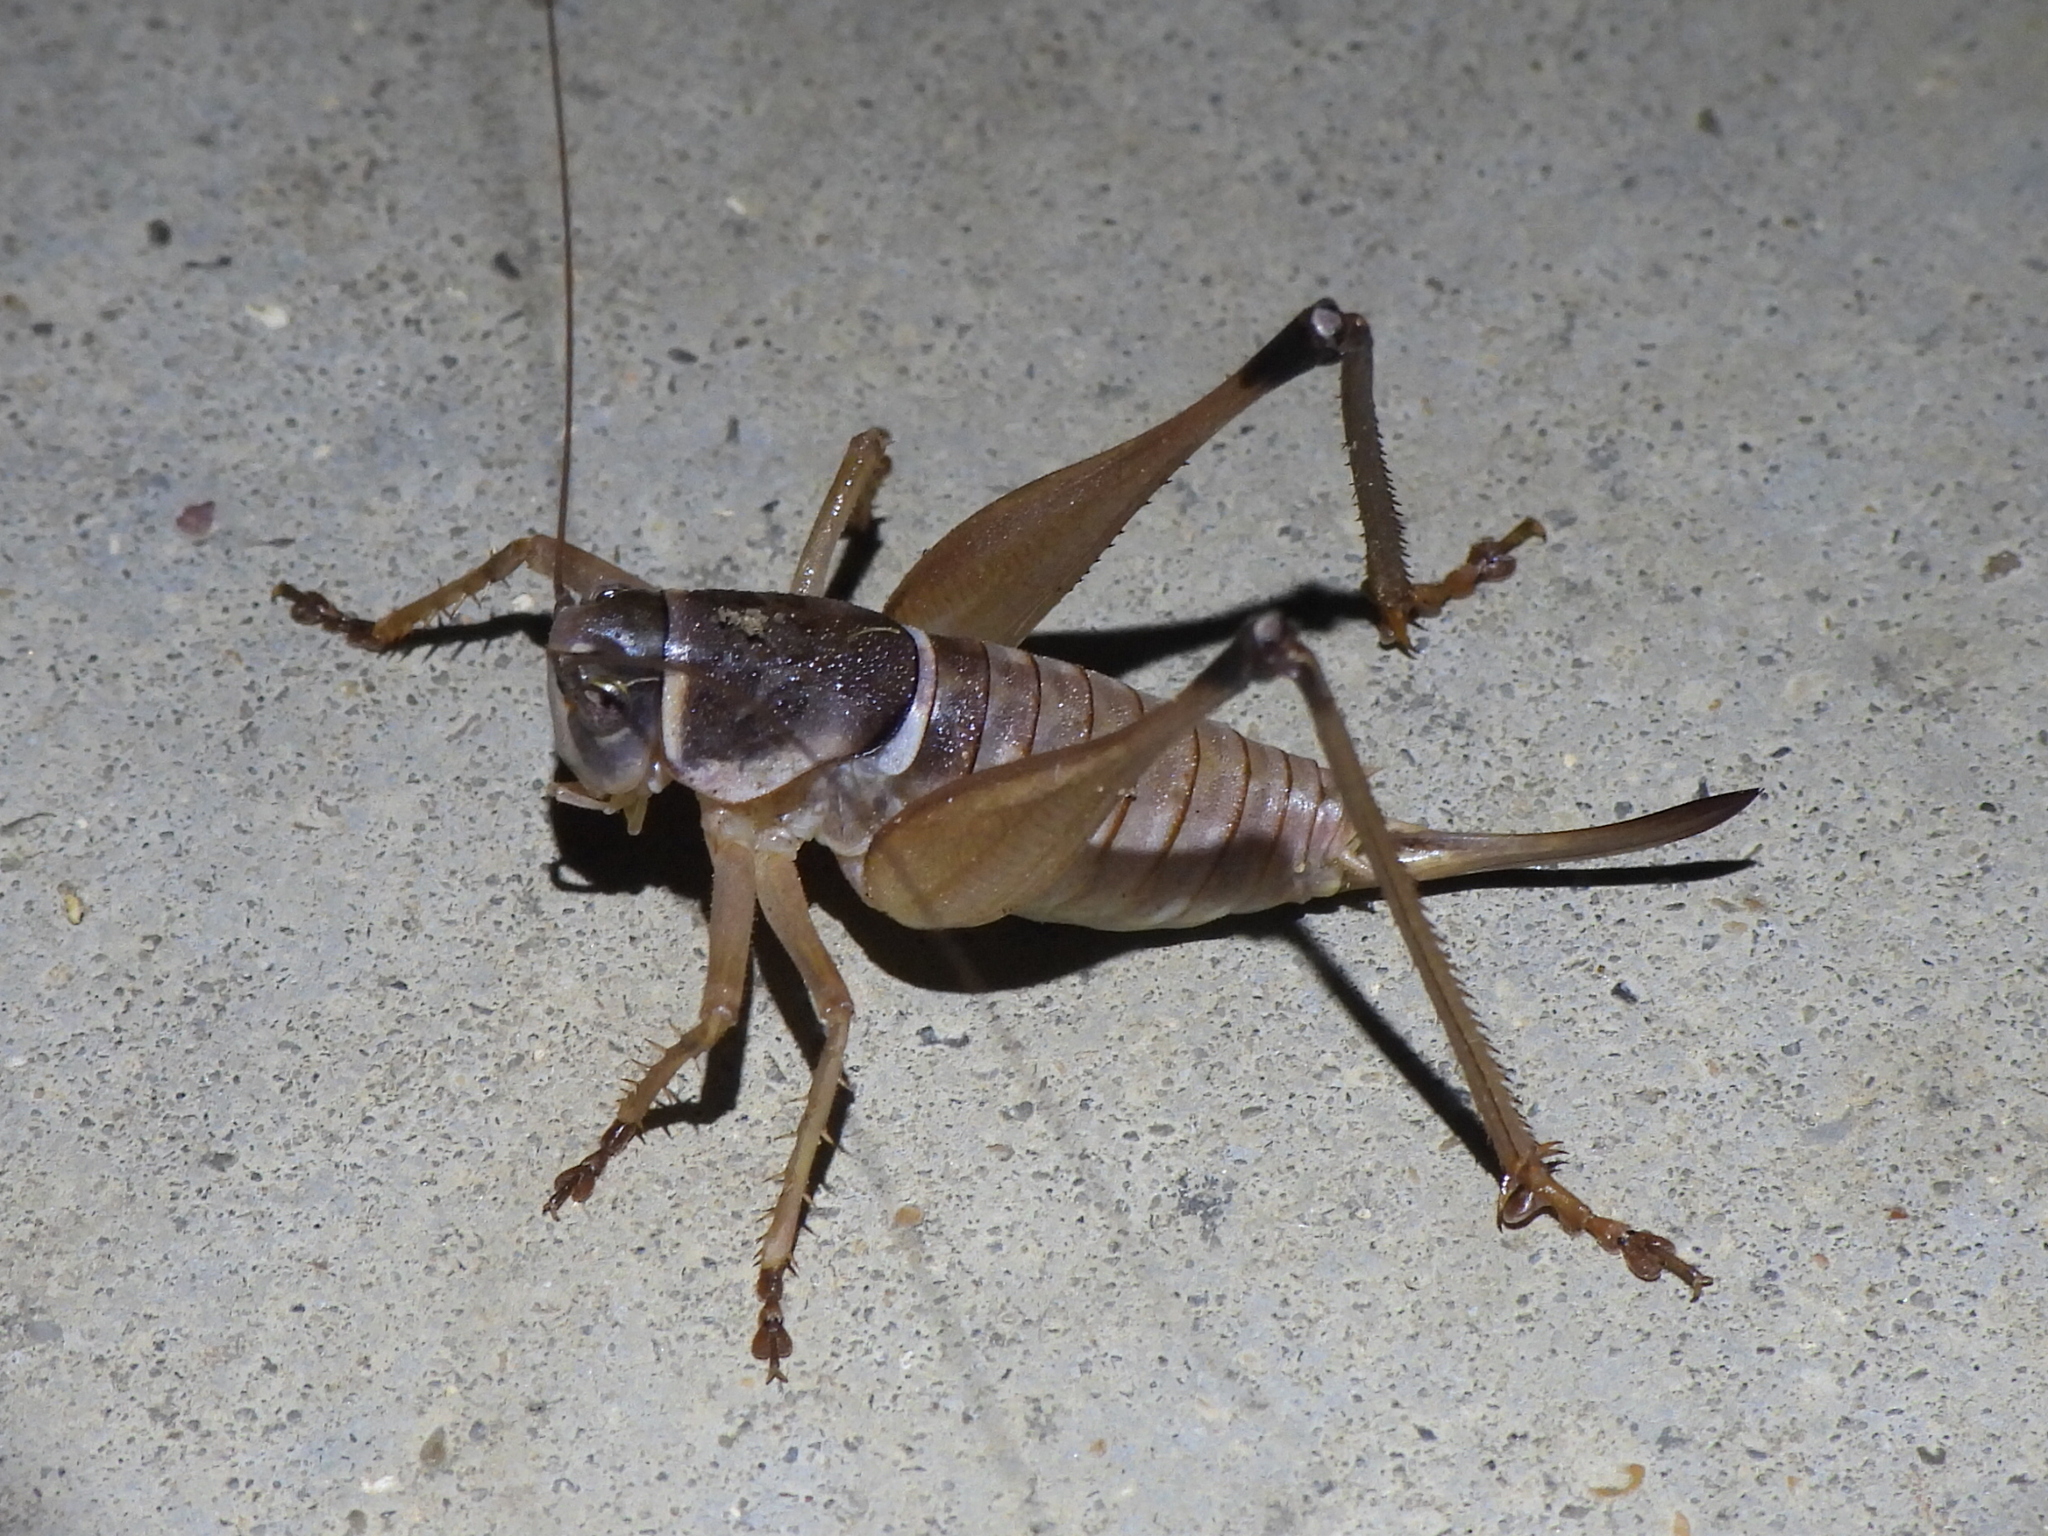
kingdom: Animalia
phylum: Arthropoda
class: Insecta
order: Orthoptera
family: Tettigoniidae
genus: Pediodectes
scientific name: Pediodectes bruneri
